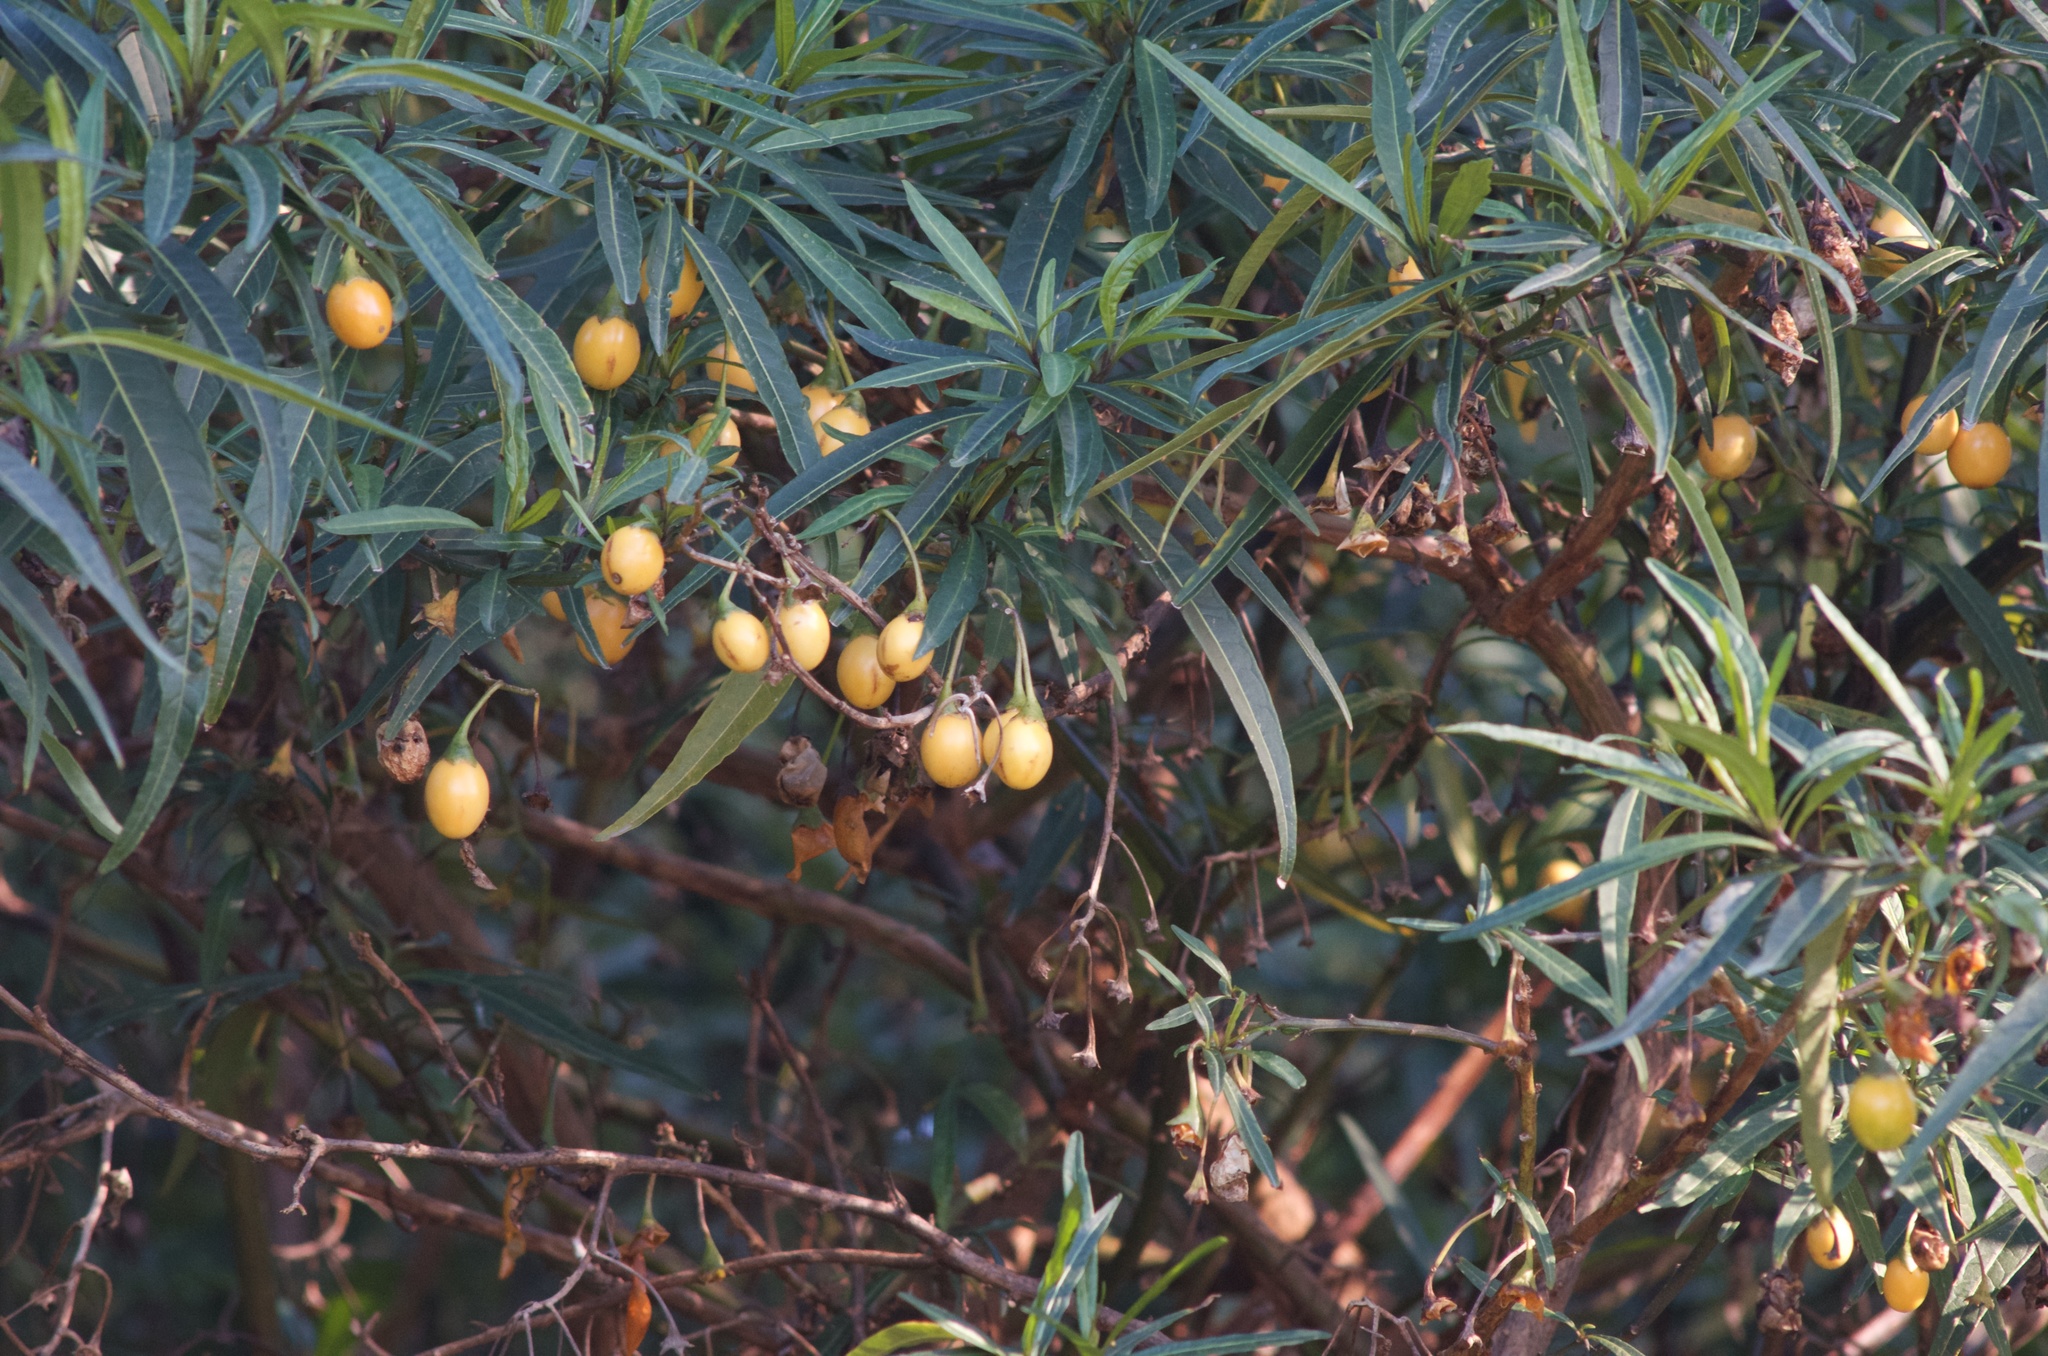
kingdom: Plantae
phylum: Tracheophyta
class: Magnoliopsida
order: Solanales
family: Solanaceae
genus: Solanum
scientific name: Solanum laciniatum
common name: Kangaroo-apple
